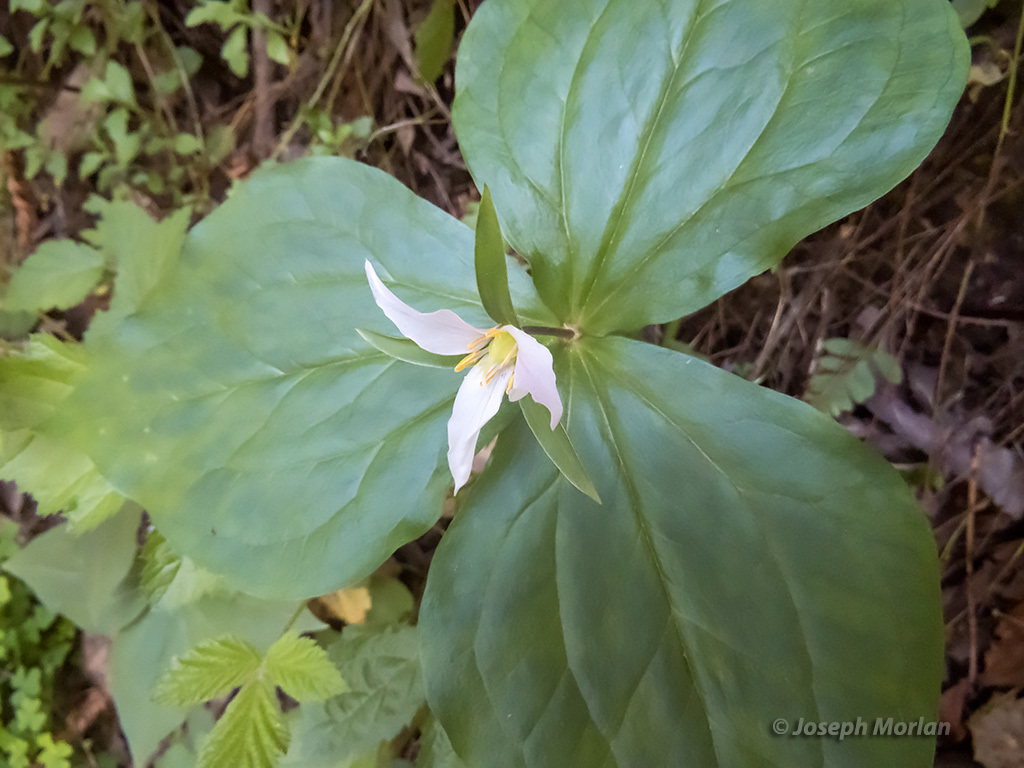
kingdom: Plantae
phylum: Tracheophyta
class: Liliopsida
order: Liliales
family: Melanthiaceae
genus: Trillium
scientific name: Trillium ovatum
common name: Pacific trillium
